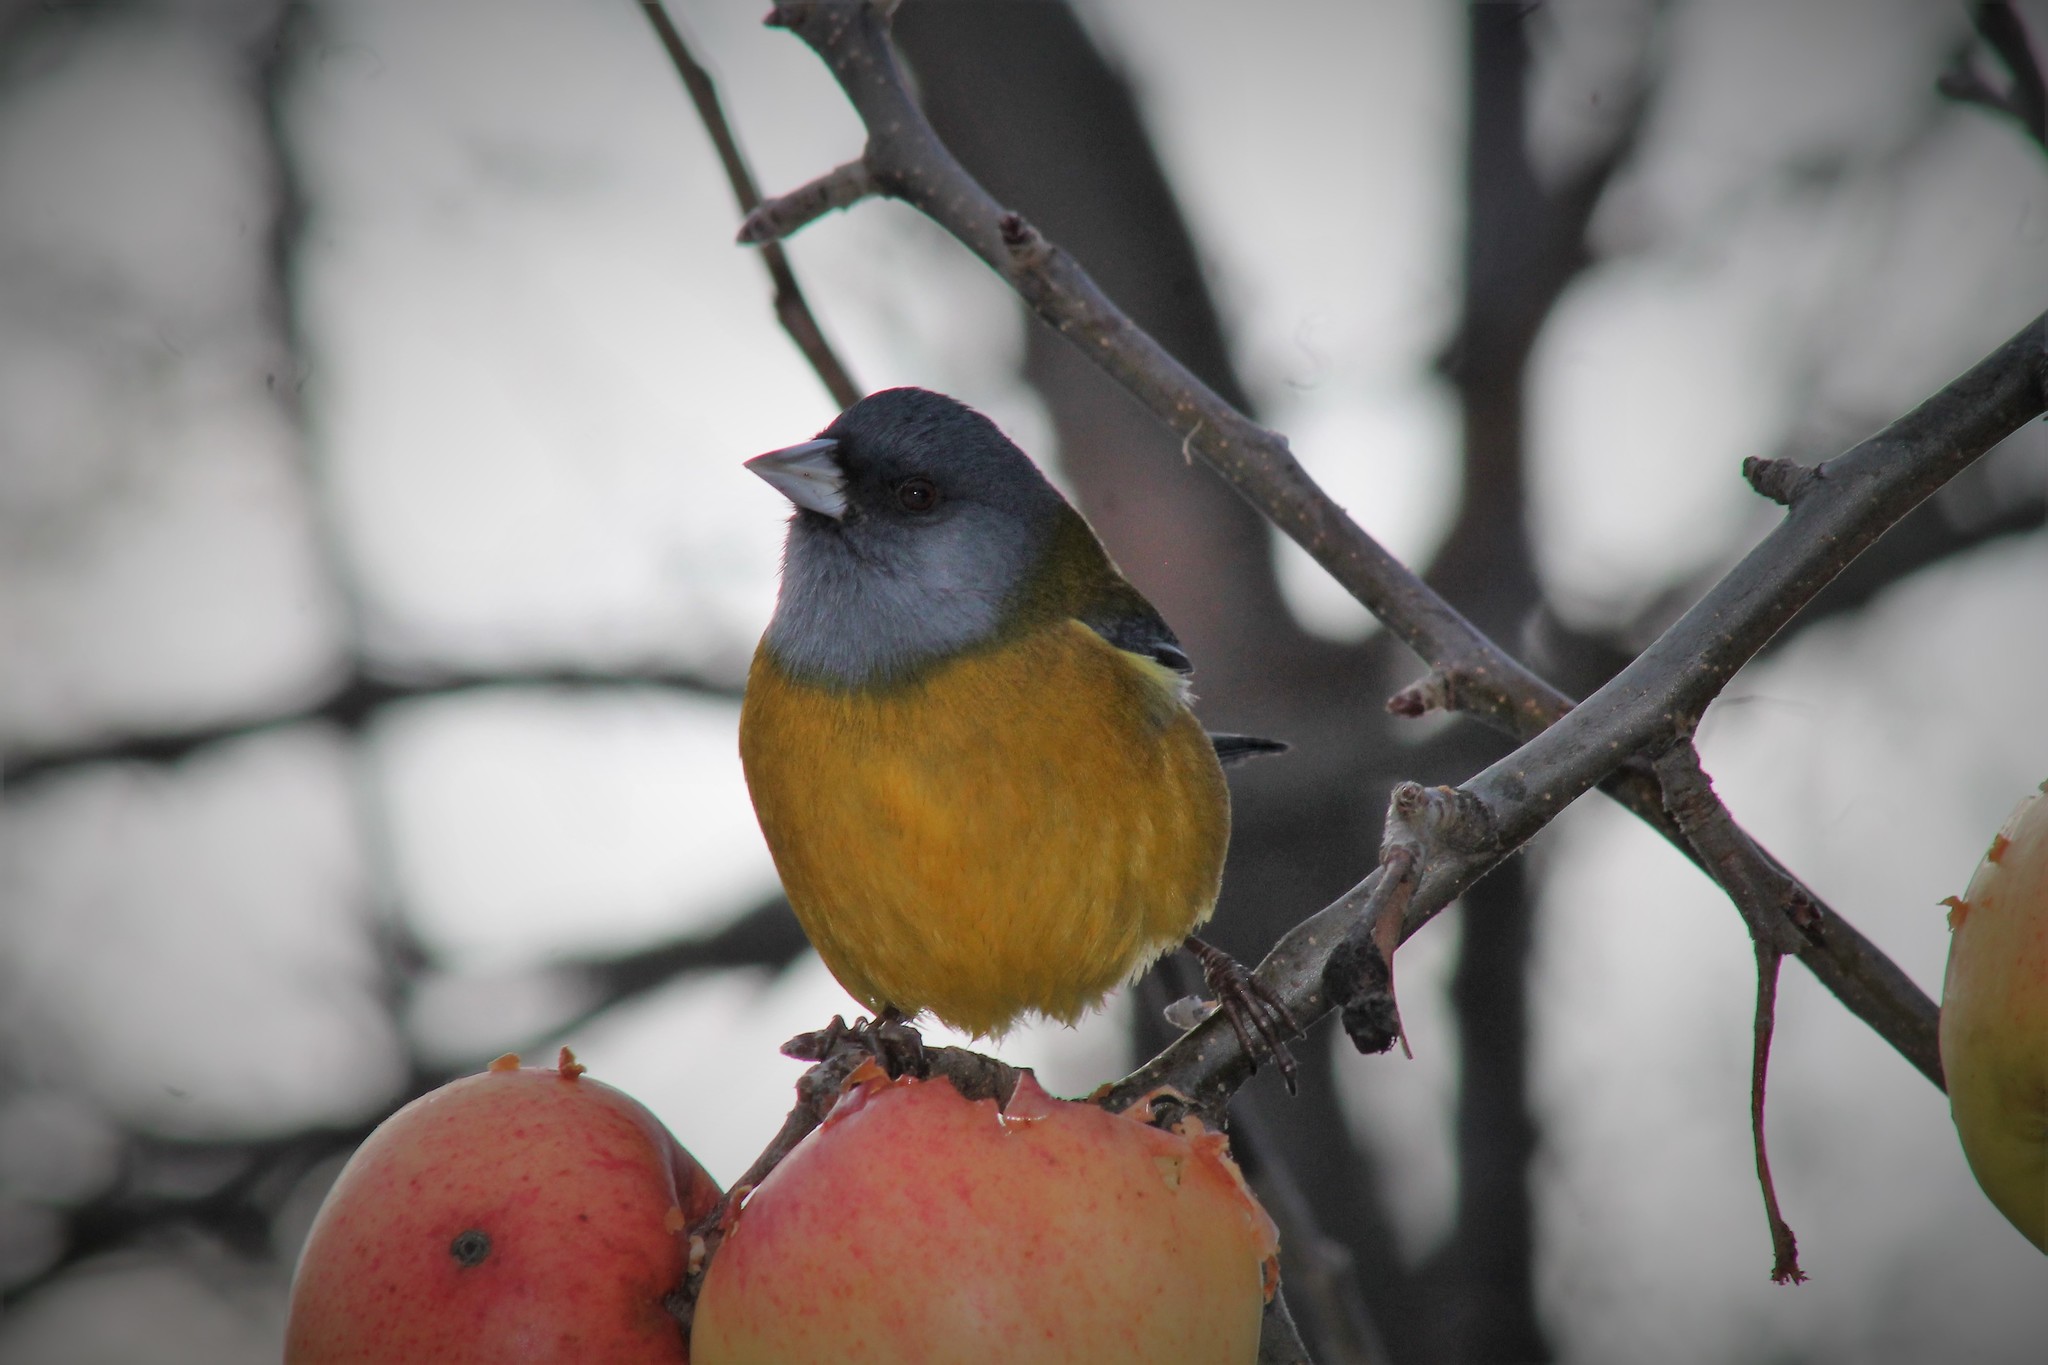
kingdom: Animalia
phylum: Chordata
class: Aves
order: Passeriformes
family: Thraupidae
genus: Phrygilus
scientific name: Phrygilus patagonicus
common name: Patagonian sierra finch
